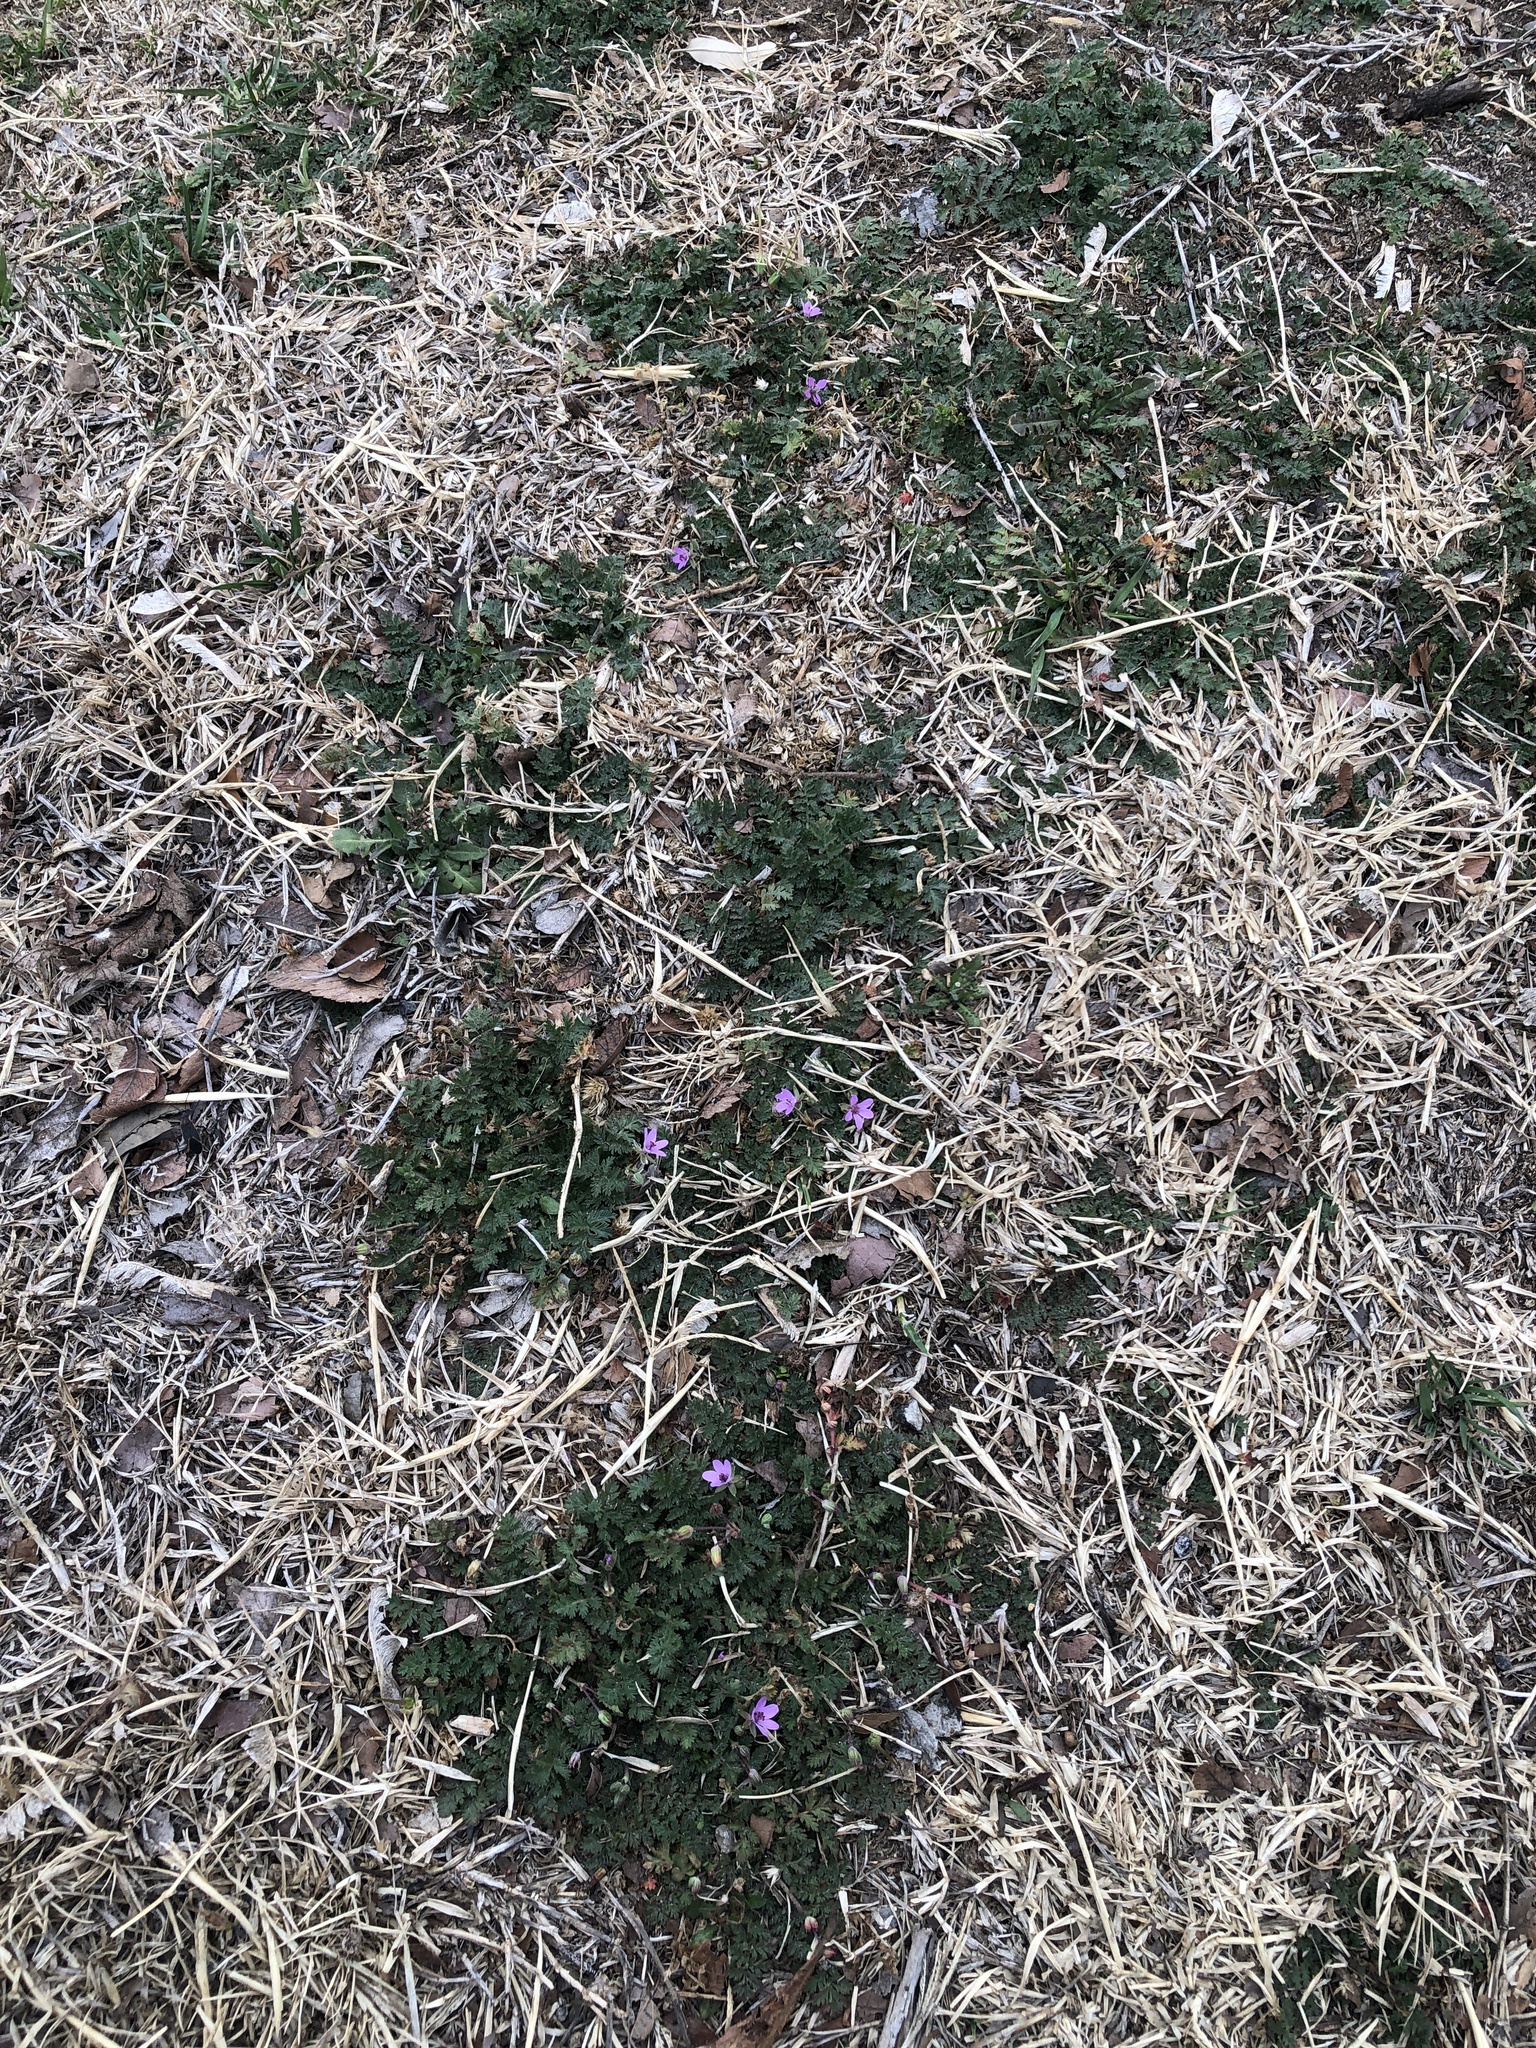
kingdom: Plantae
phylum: Tracheophyta
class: Magnoliopsida
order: Geraniales
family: Geraniaceae
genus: Erodium
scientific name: Erodium cicutarium
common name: Common stork's-bill
